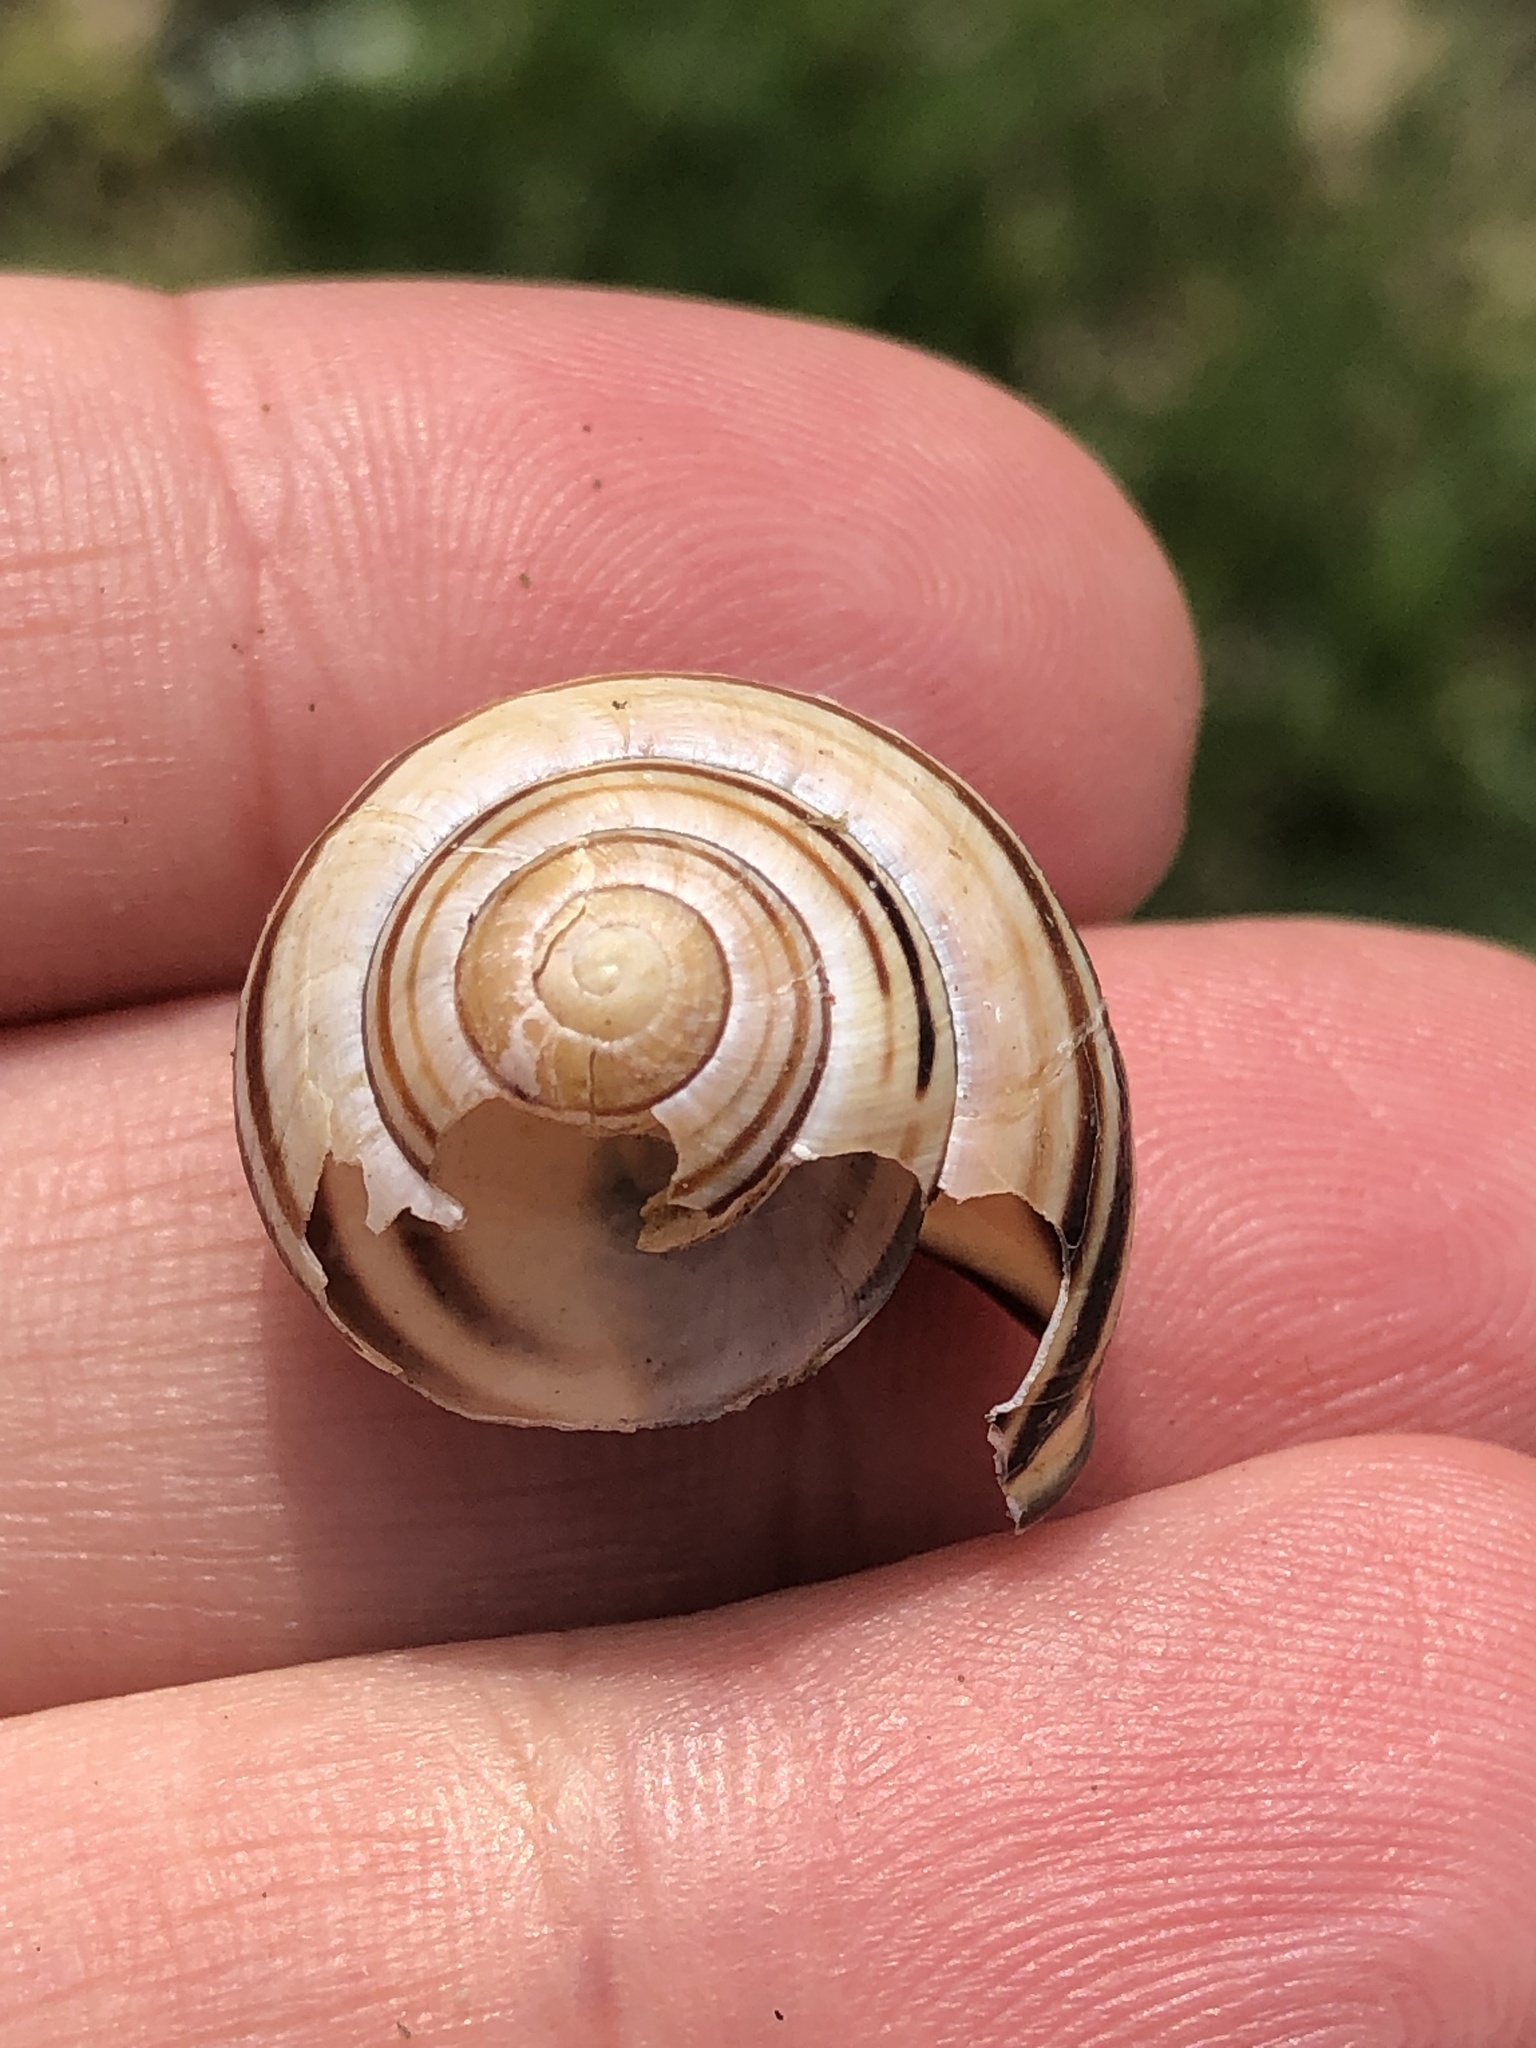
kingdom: Animalia
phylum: Mollusca
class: Gastropoda
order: Stylommatophora
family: Helicidae
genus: Cepaea
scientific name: Cepaea nemoralis
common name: Grovesnail
